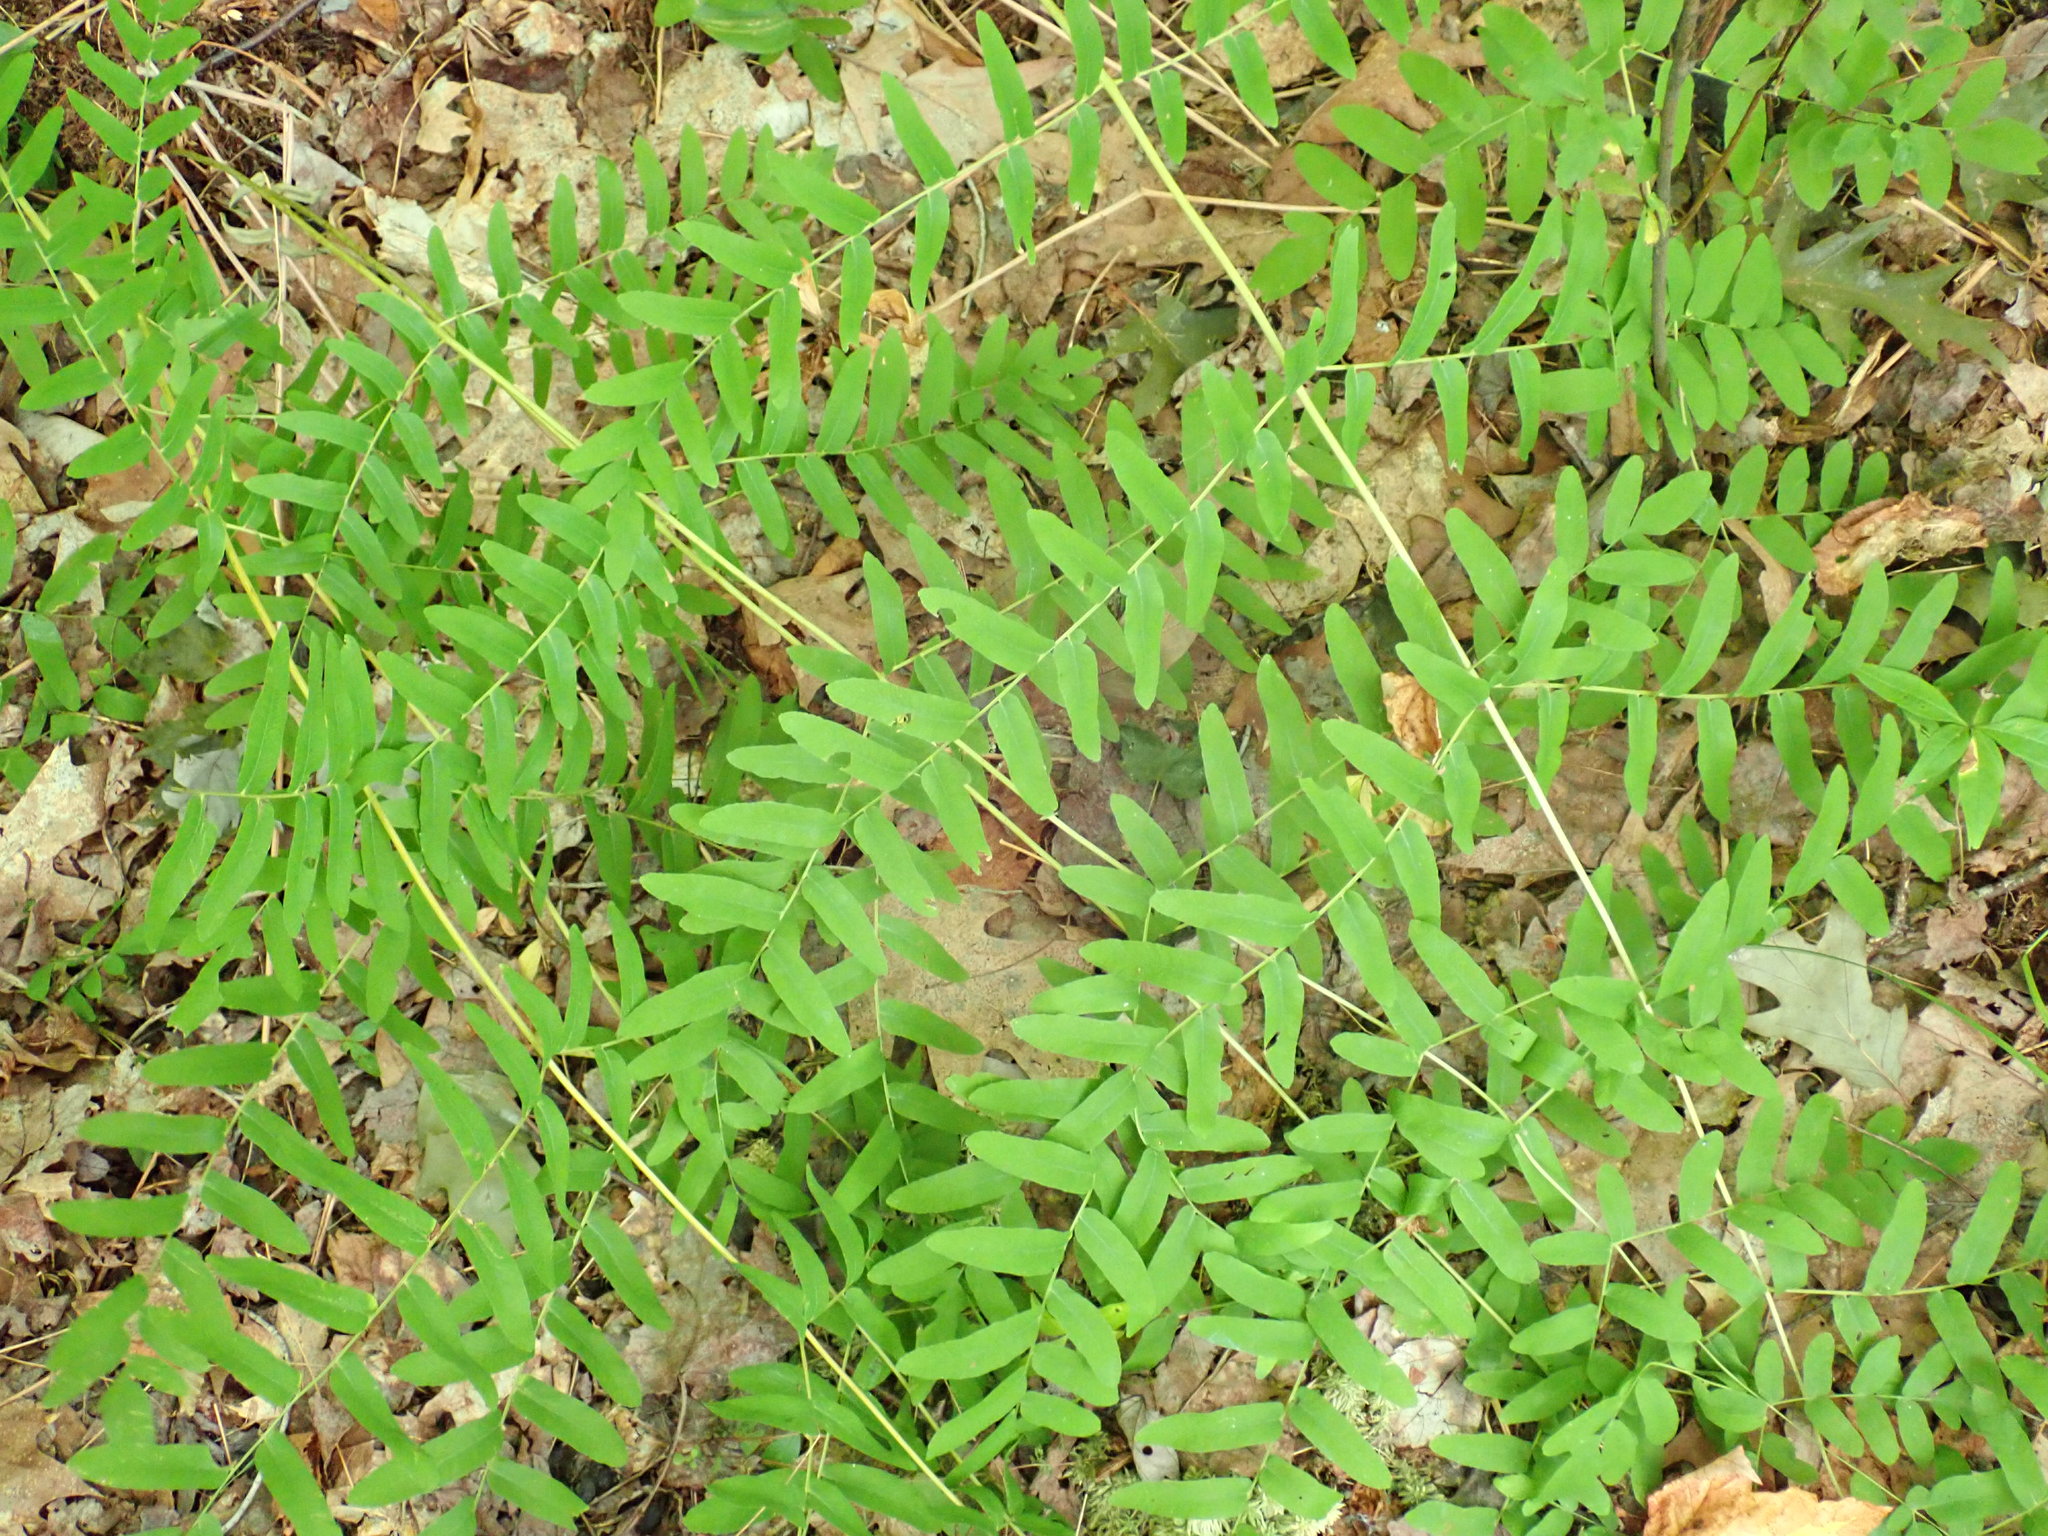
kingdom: Plantae
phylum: Tracheophyta
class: Polypodiopsida
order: Osmundales
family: Osmundaceae
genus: Osmunda
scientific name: Osmunda spectabilis
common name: American royal fern
